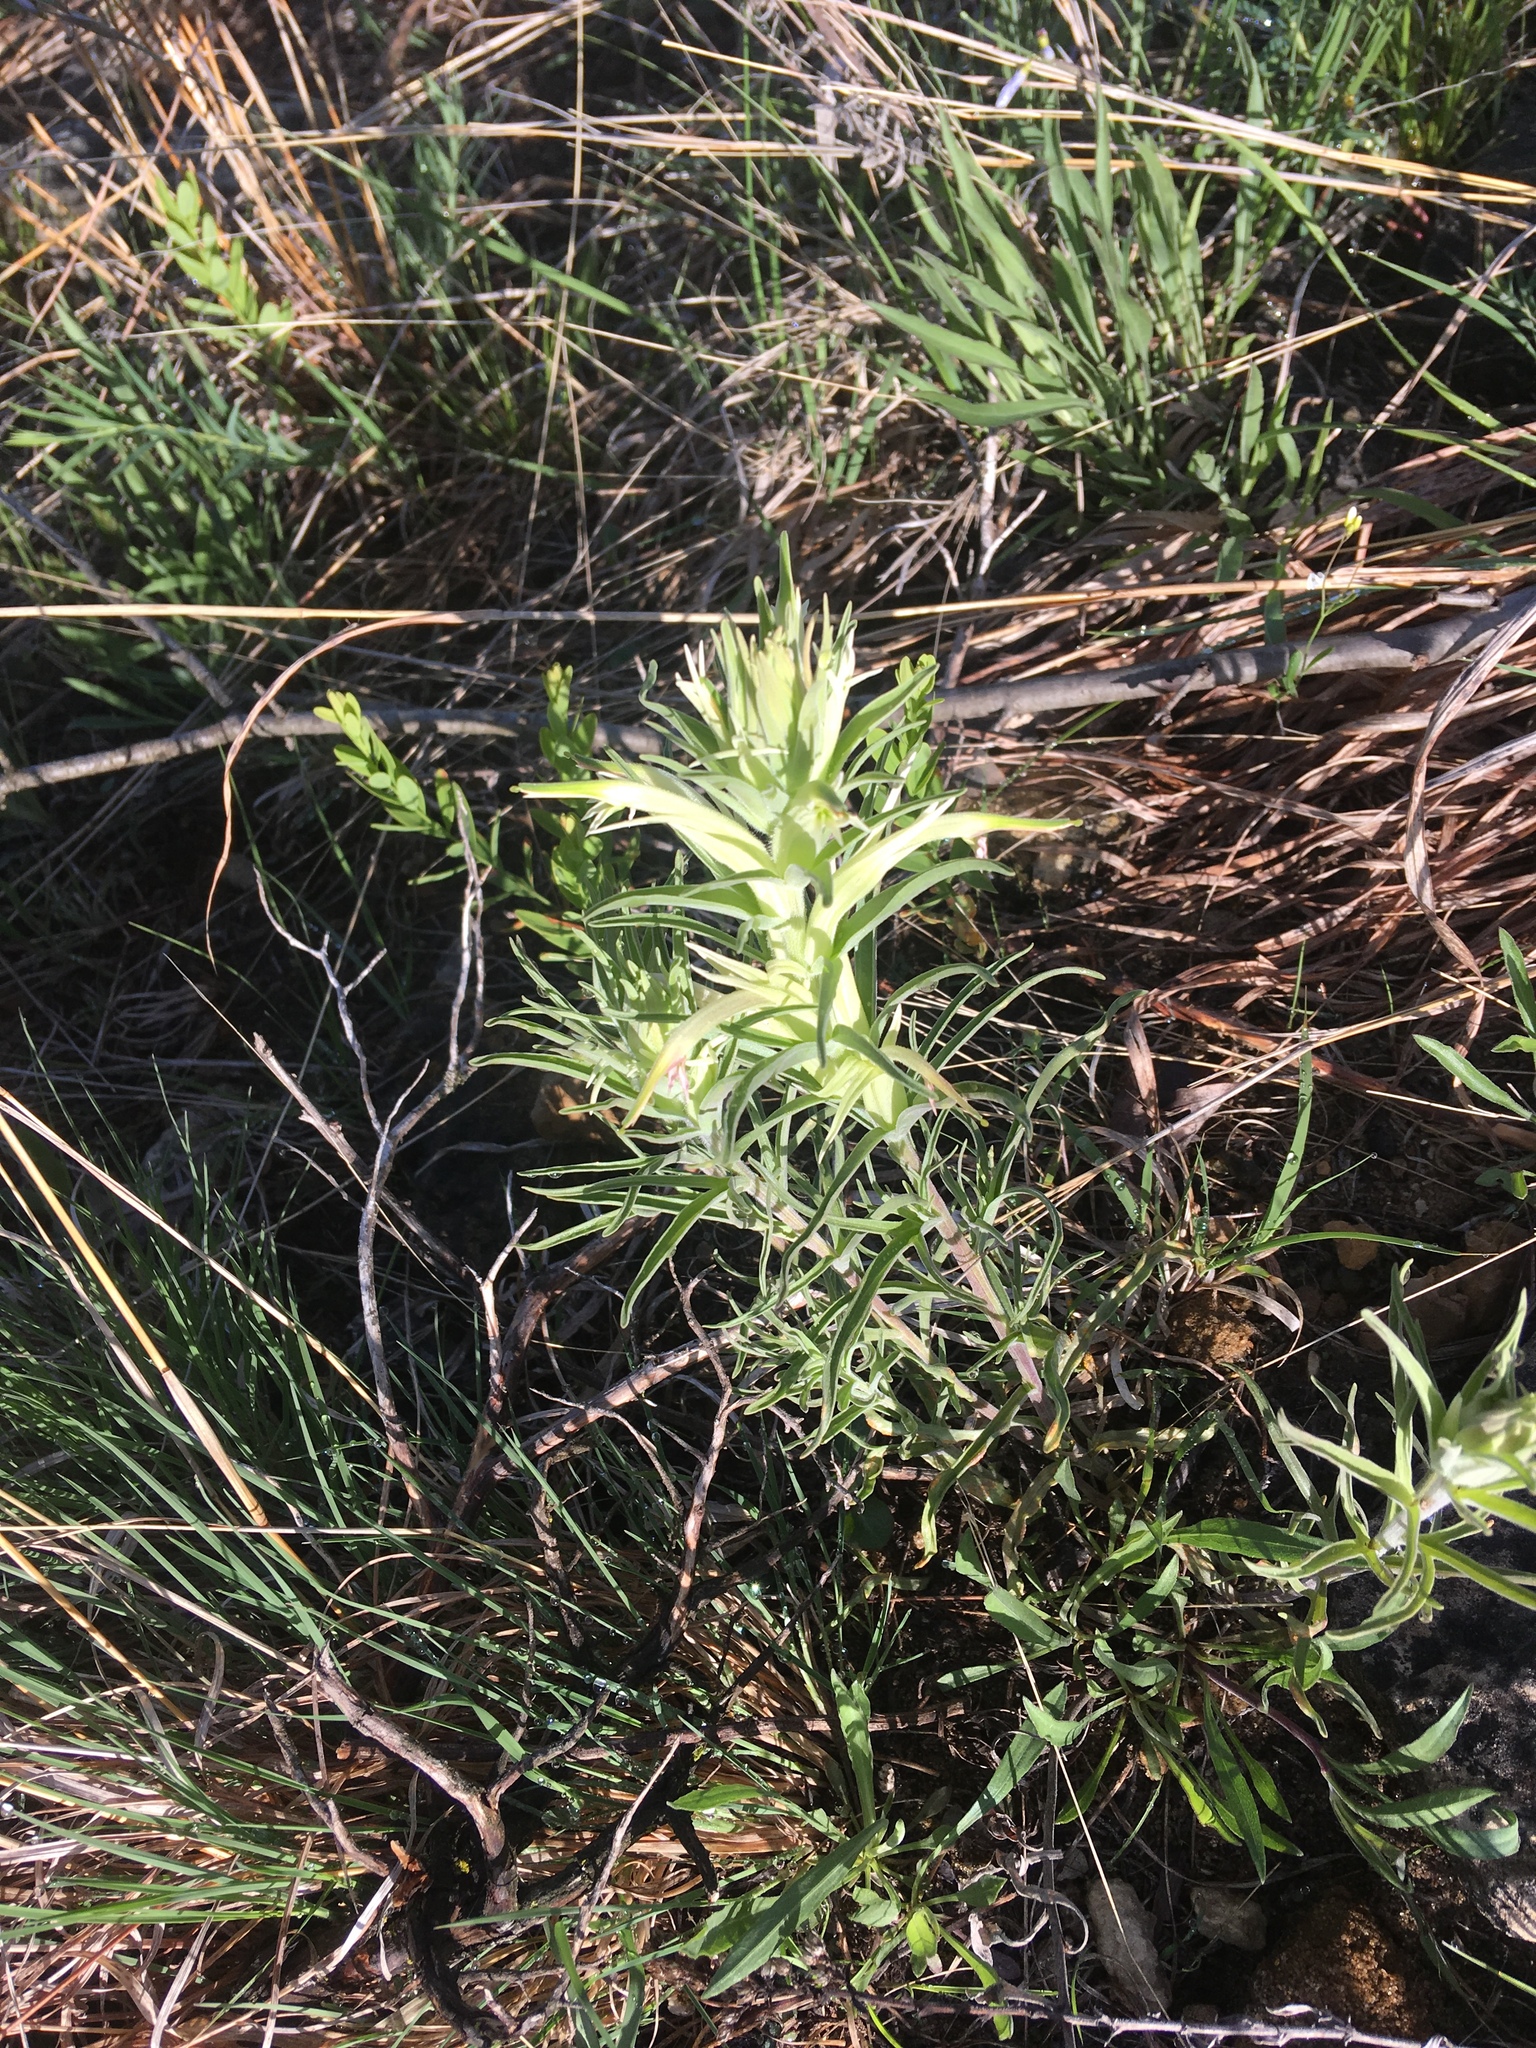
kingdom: Plantae
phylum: Tracheophyta
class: Magnoliopsida
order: Lamiales
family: Orobanchaceae
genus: Castilleja
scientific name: Castilleja sessiliflora
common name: Downy paintbrush
